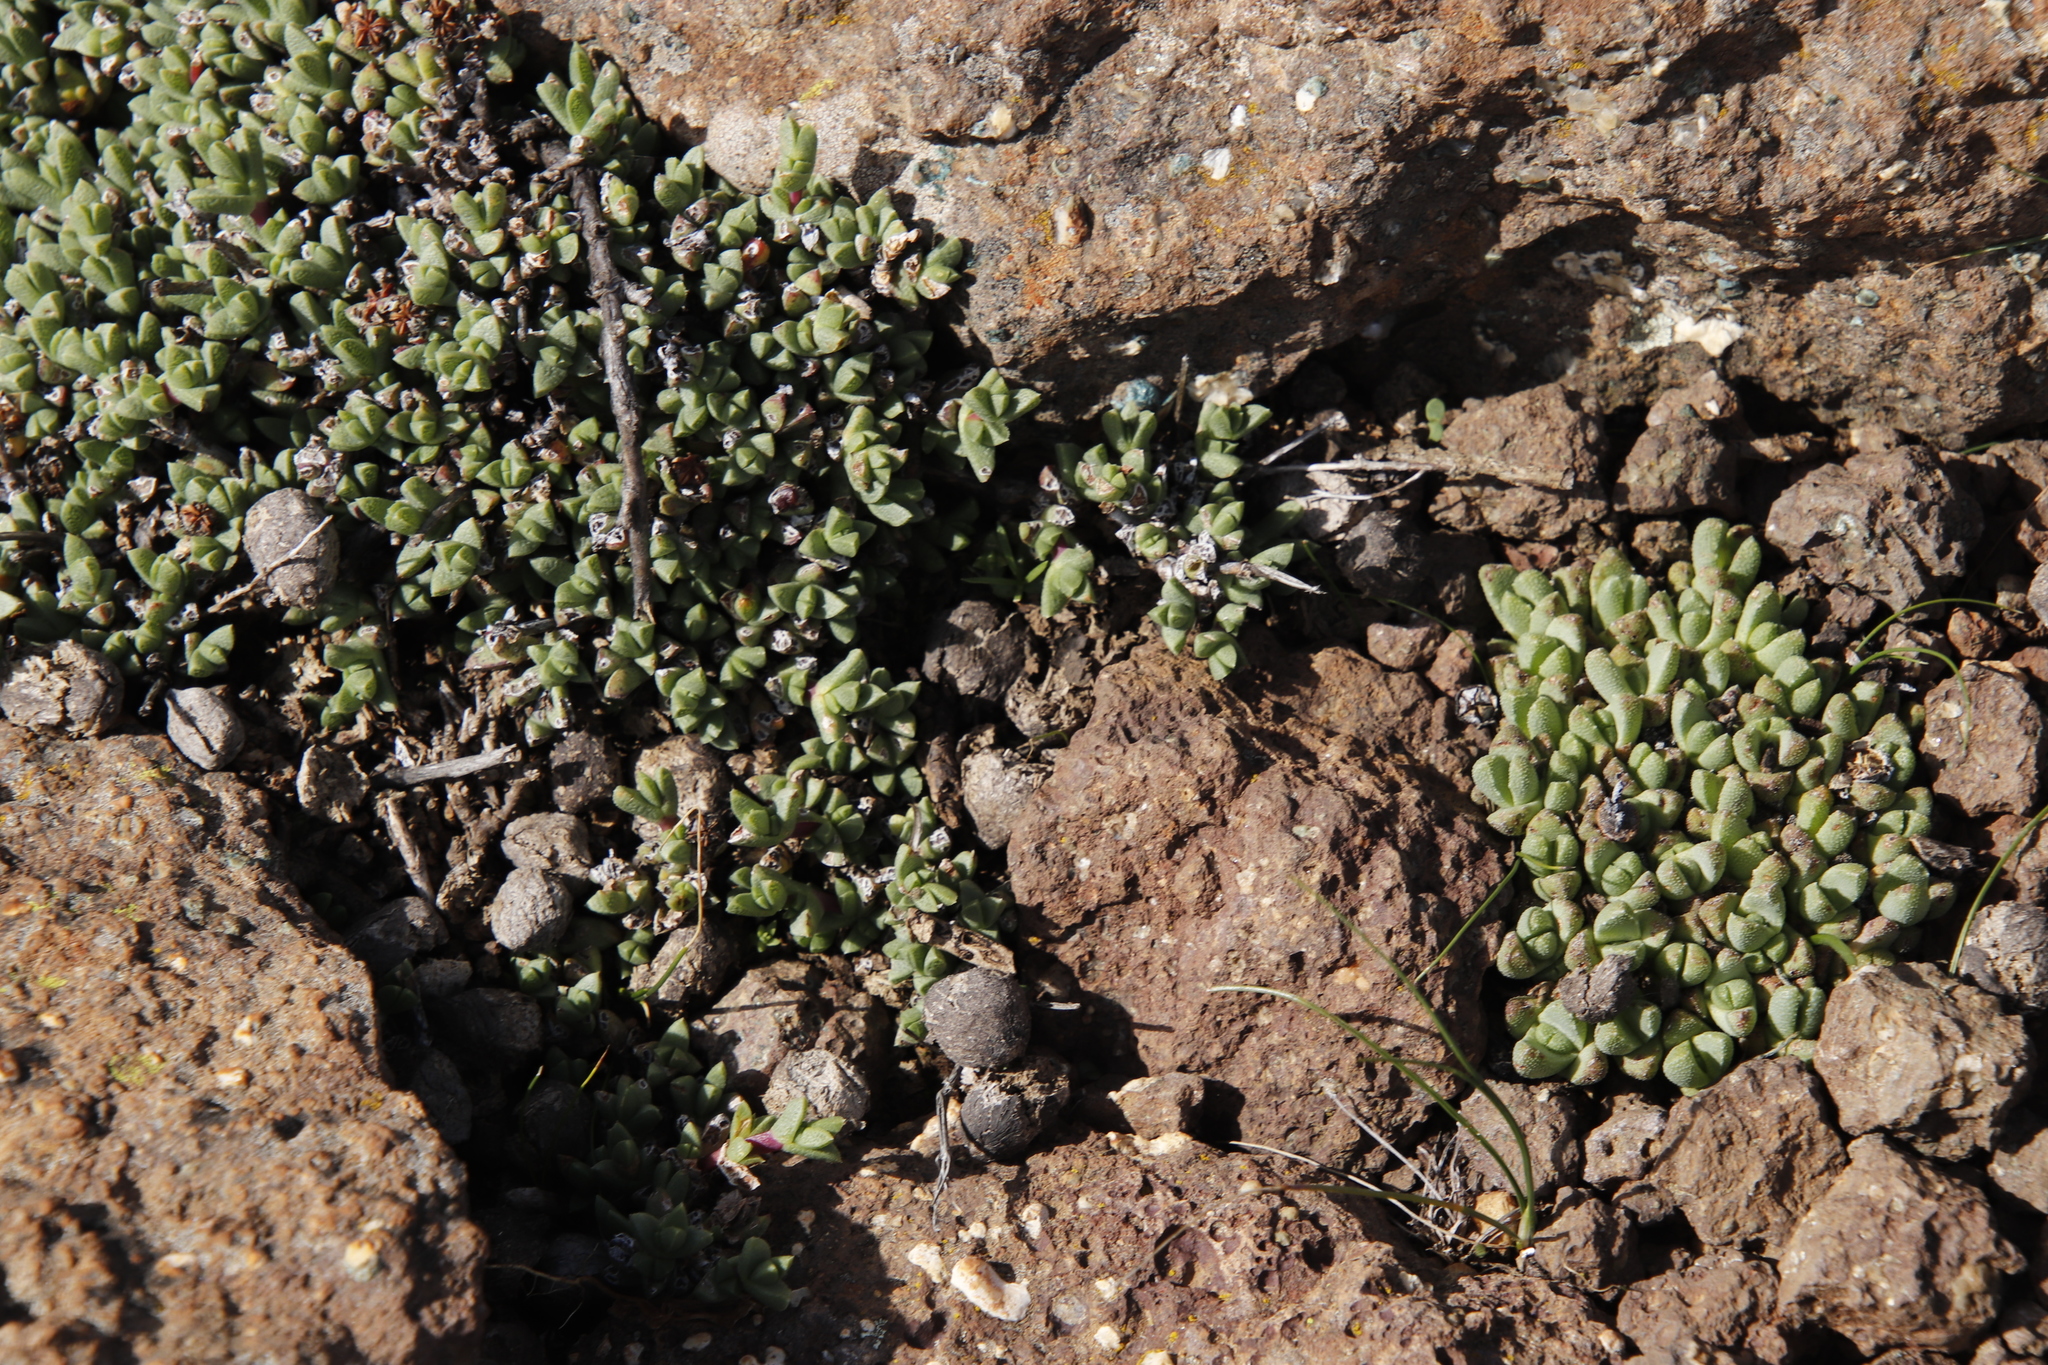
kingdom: Plantae
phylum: Tracheophyta
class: Magnoliopsida
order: Caryophyllales
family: Aizoaceae
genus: Stomatium
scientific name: Stomatium gerstneri
